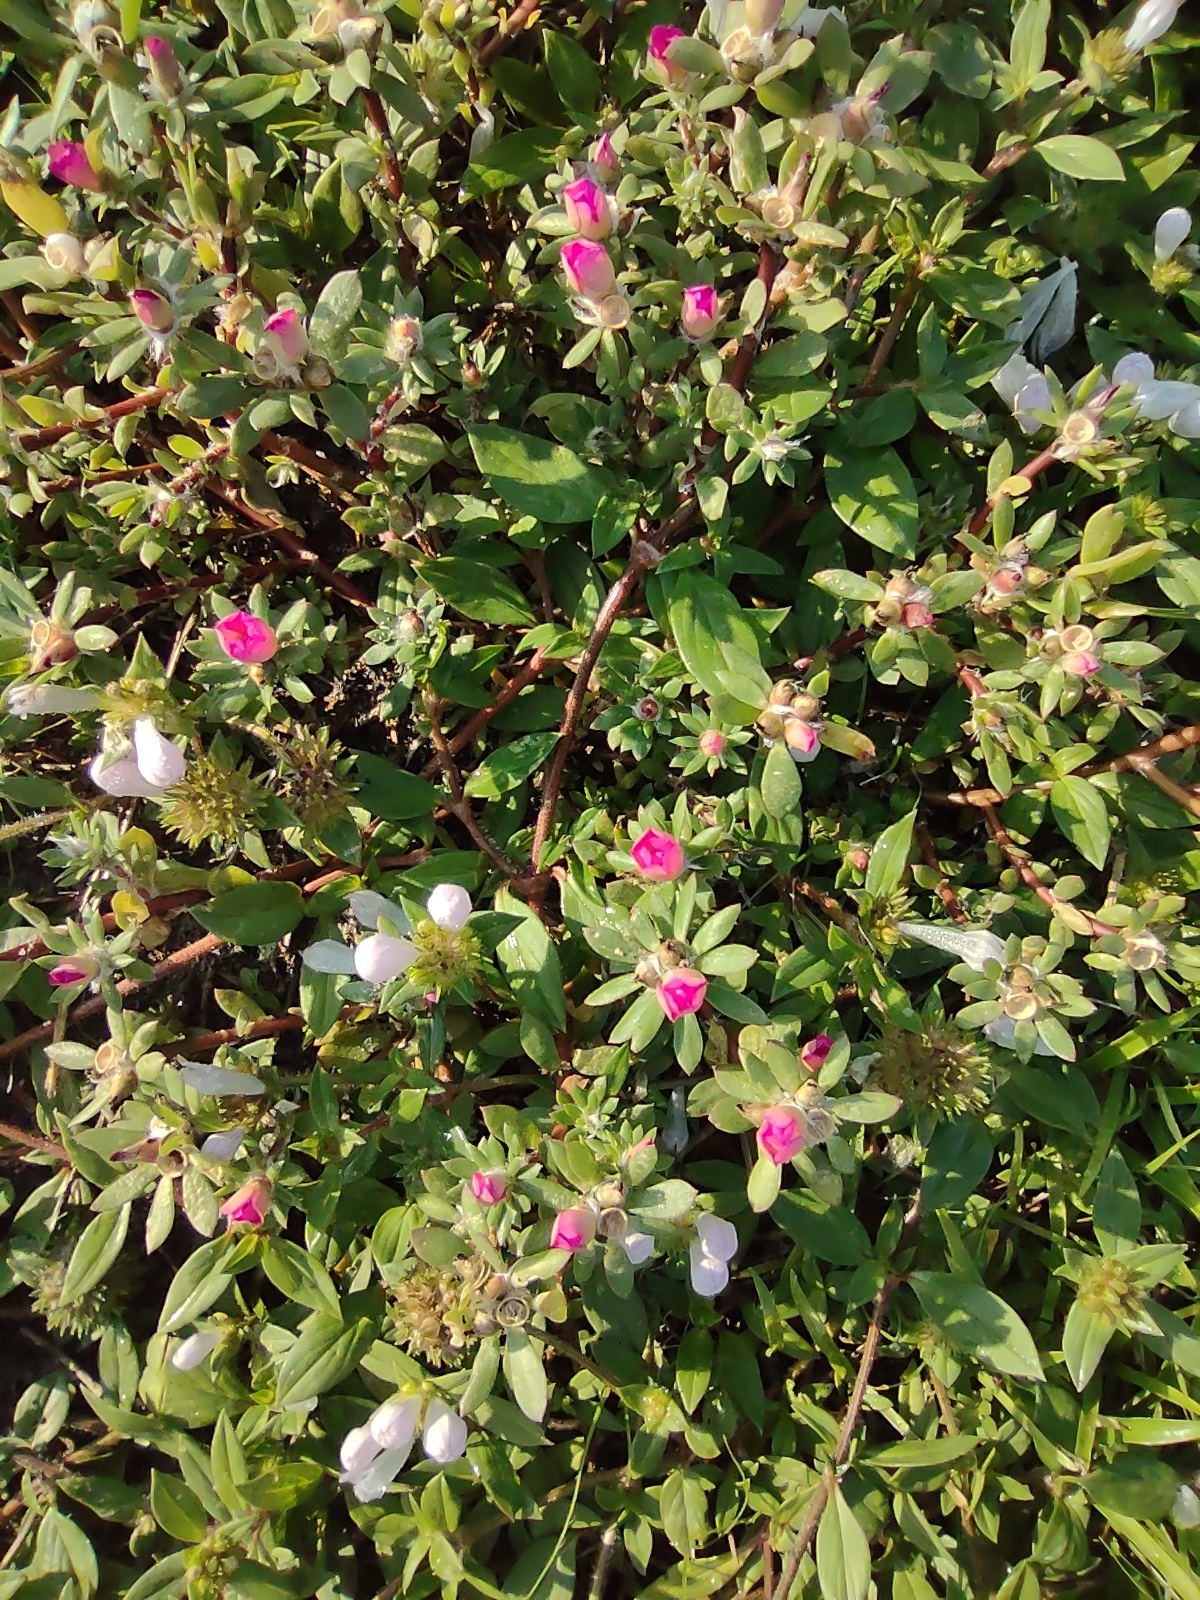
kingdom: Plantae
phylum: Tracheophyta
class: Magnoliopsida
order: Caryophyllales
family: Portulacaceae
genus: Portulaca
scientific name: Portulaca amilis
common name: Paraguayan purslane
